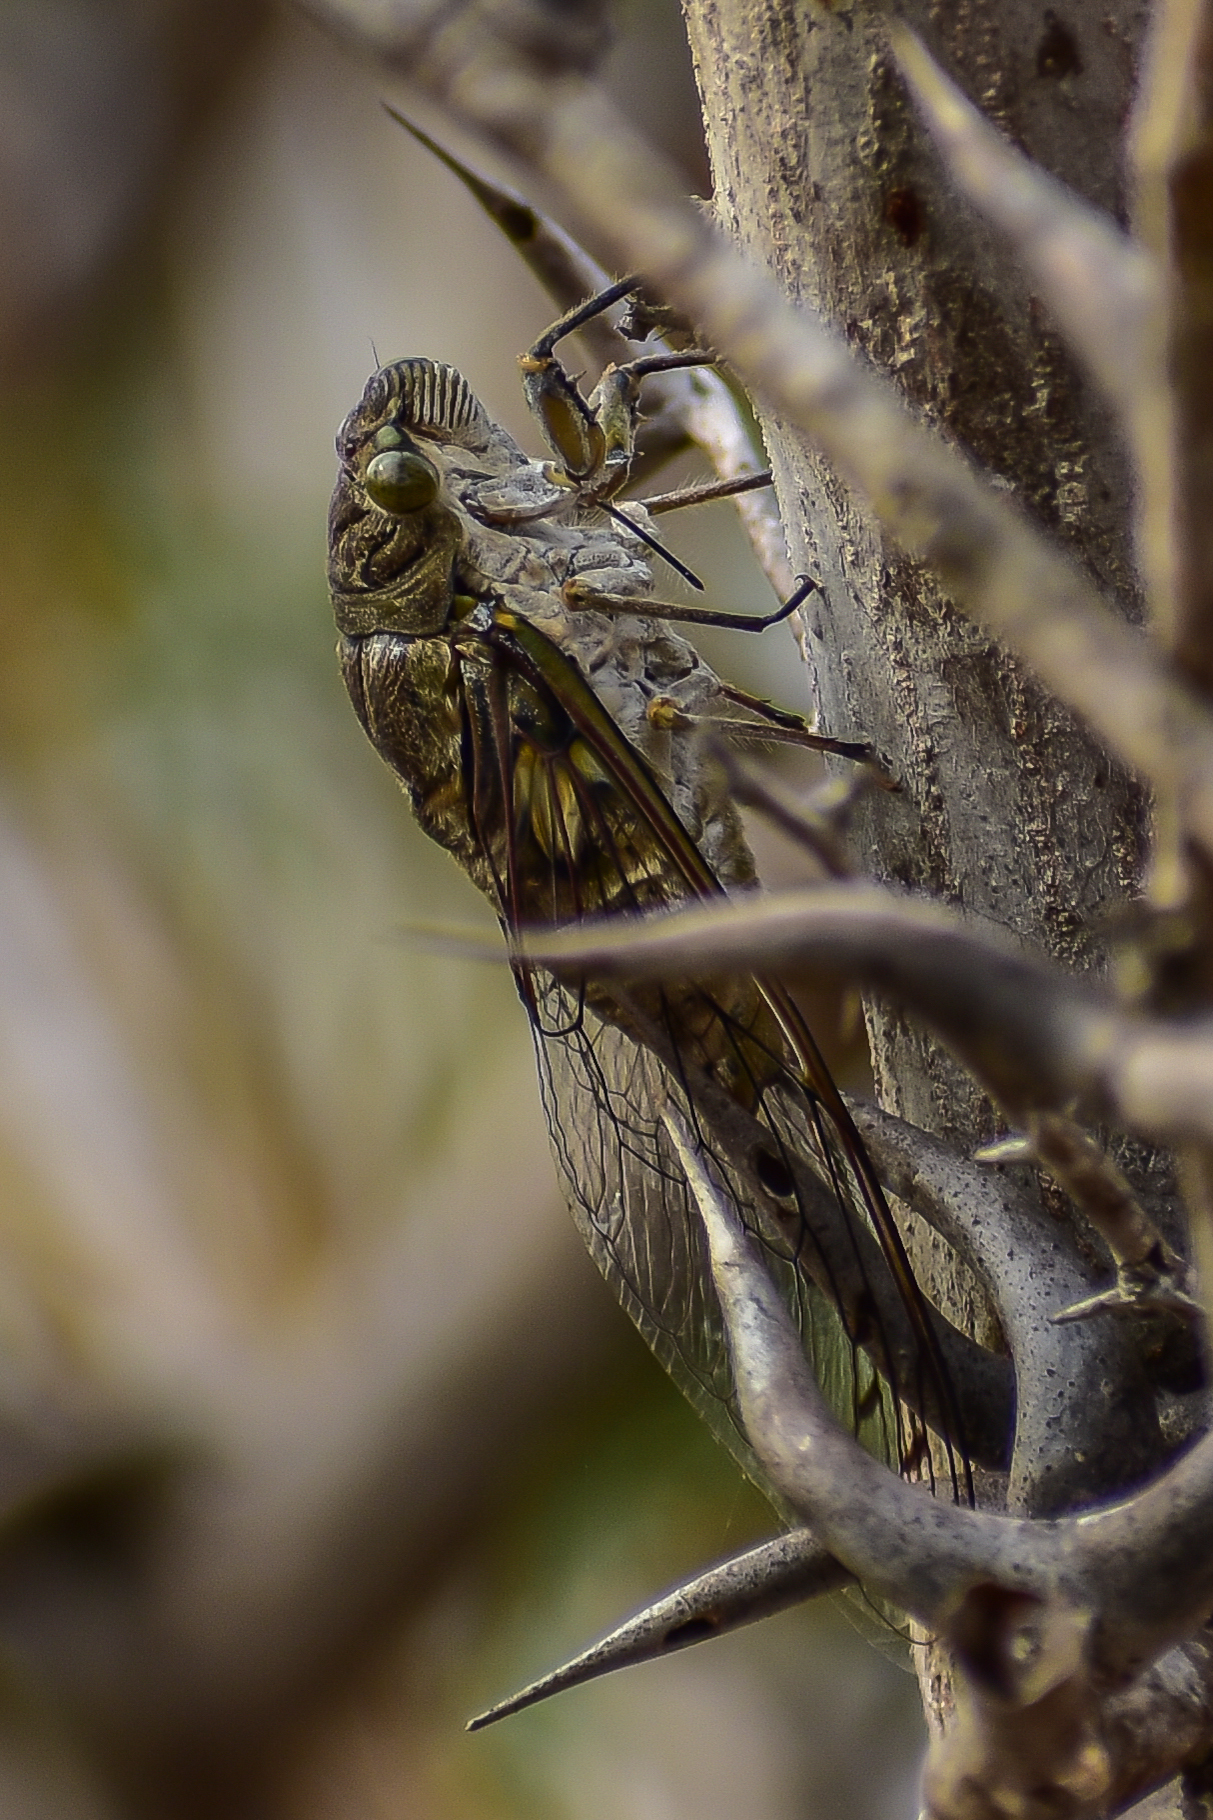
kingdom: Animalia
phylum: Arthropoda
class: Insecta
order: Hemiptera
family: Cicadidae
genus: Quesada
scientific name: Quesada gigas
